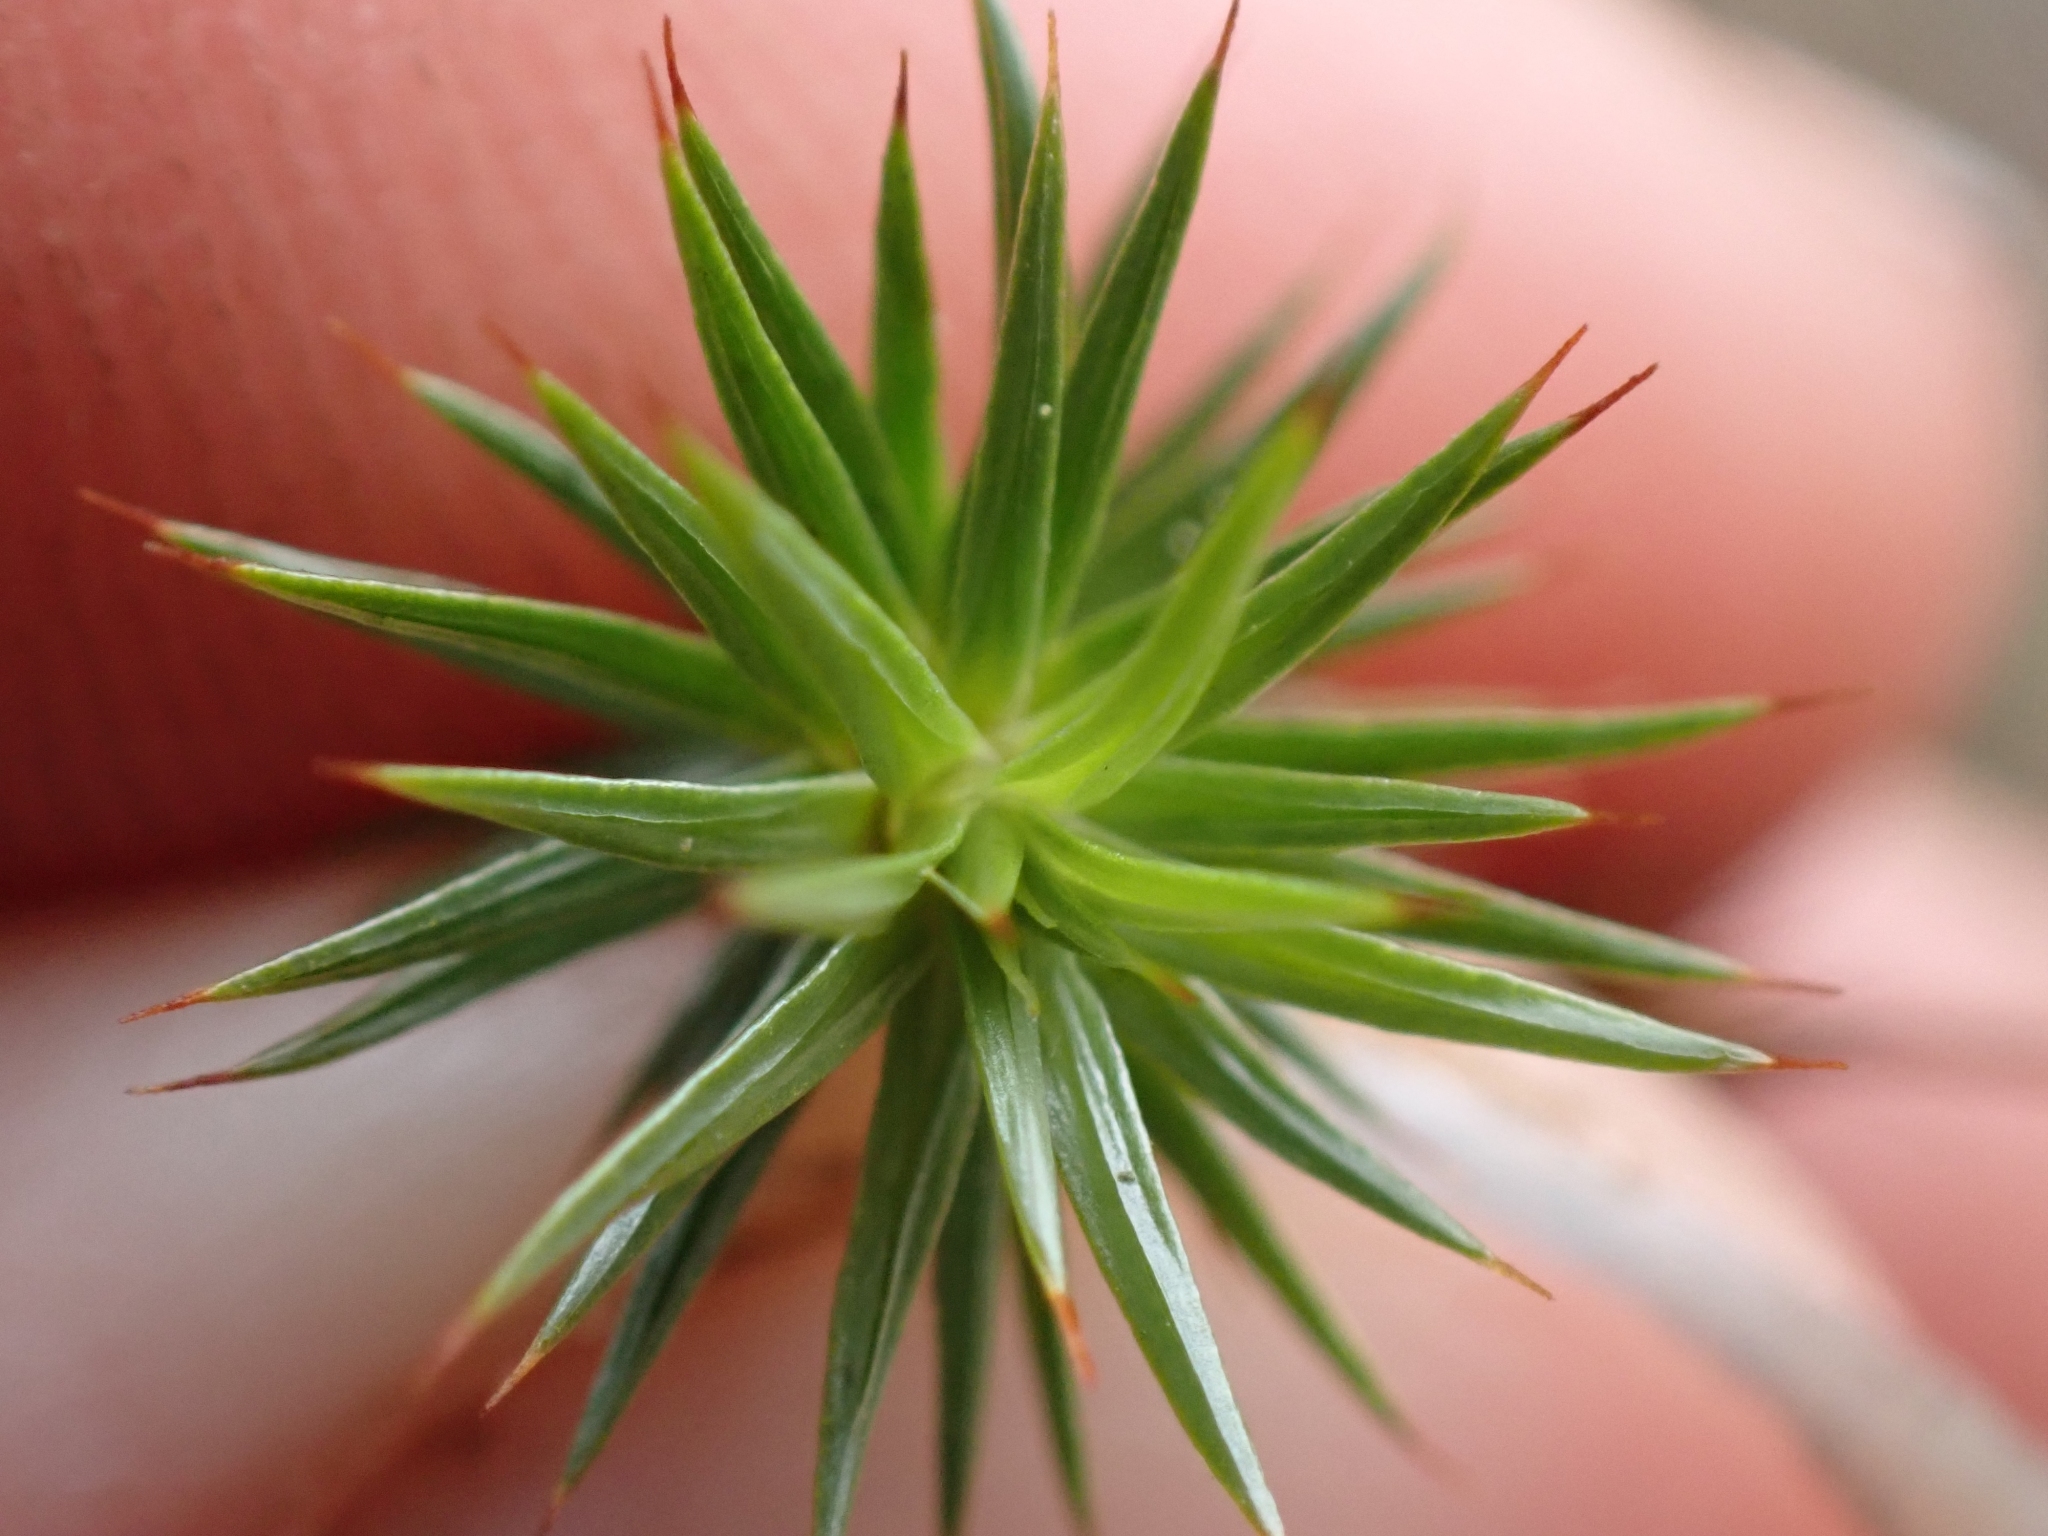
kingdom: Plantae
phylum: Bryophyta
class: Polytrichopsida
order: Polytrichales
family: Polytrichaceae
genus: Polytrichum
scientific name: Polytrichum juniperinum
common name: Juniper haircap moss
